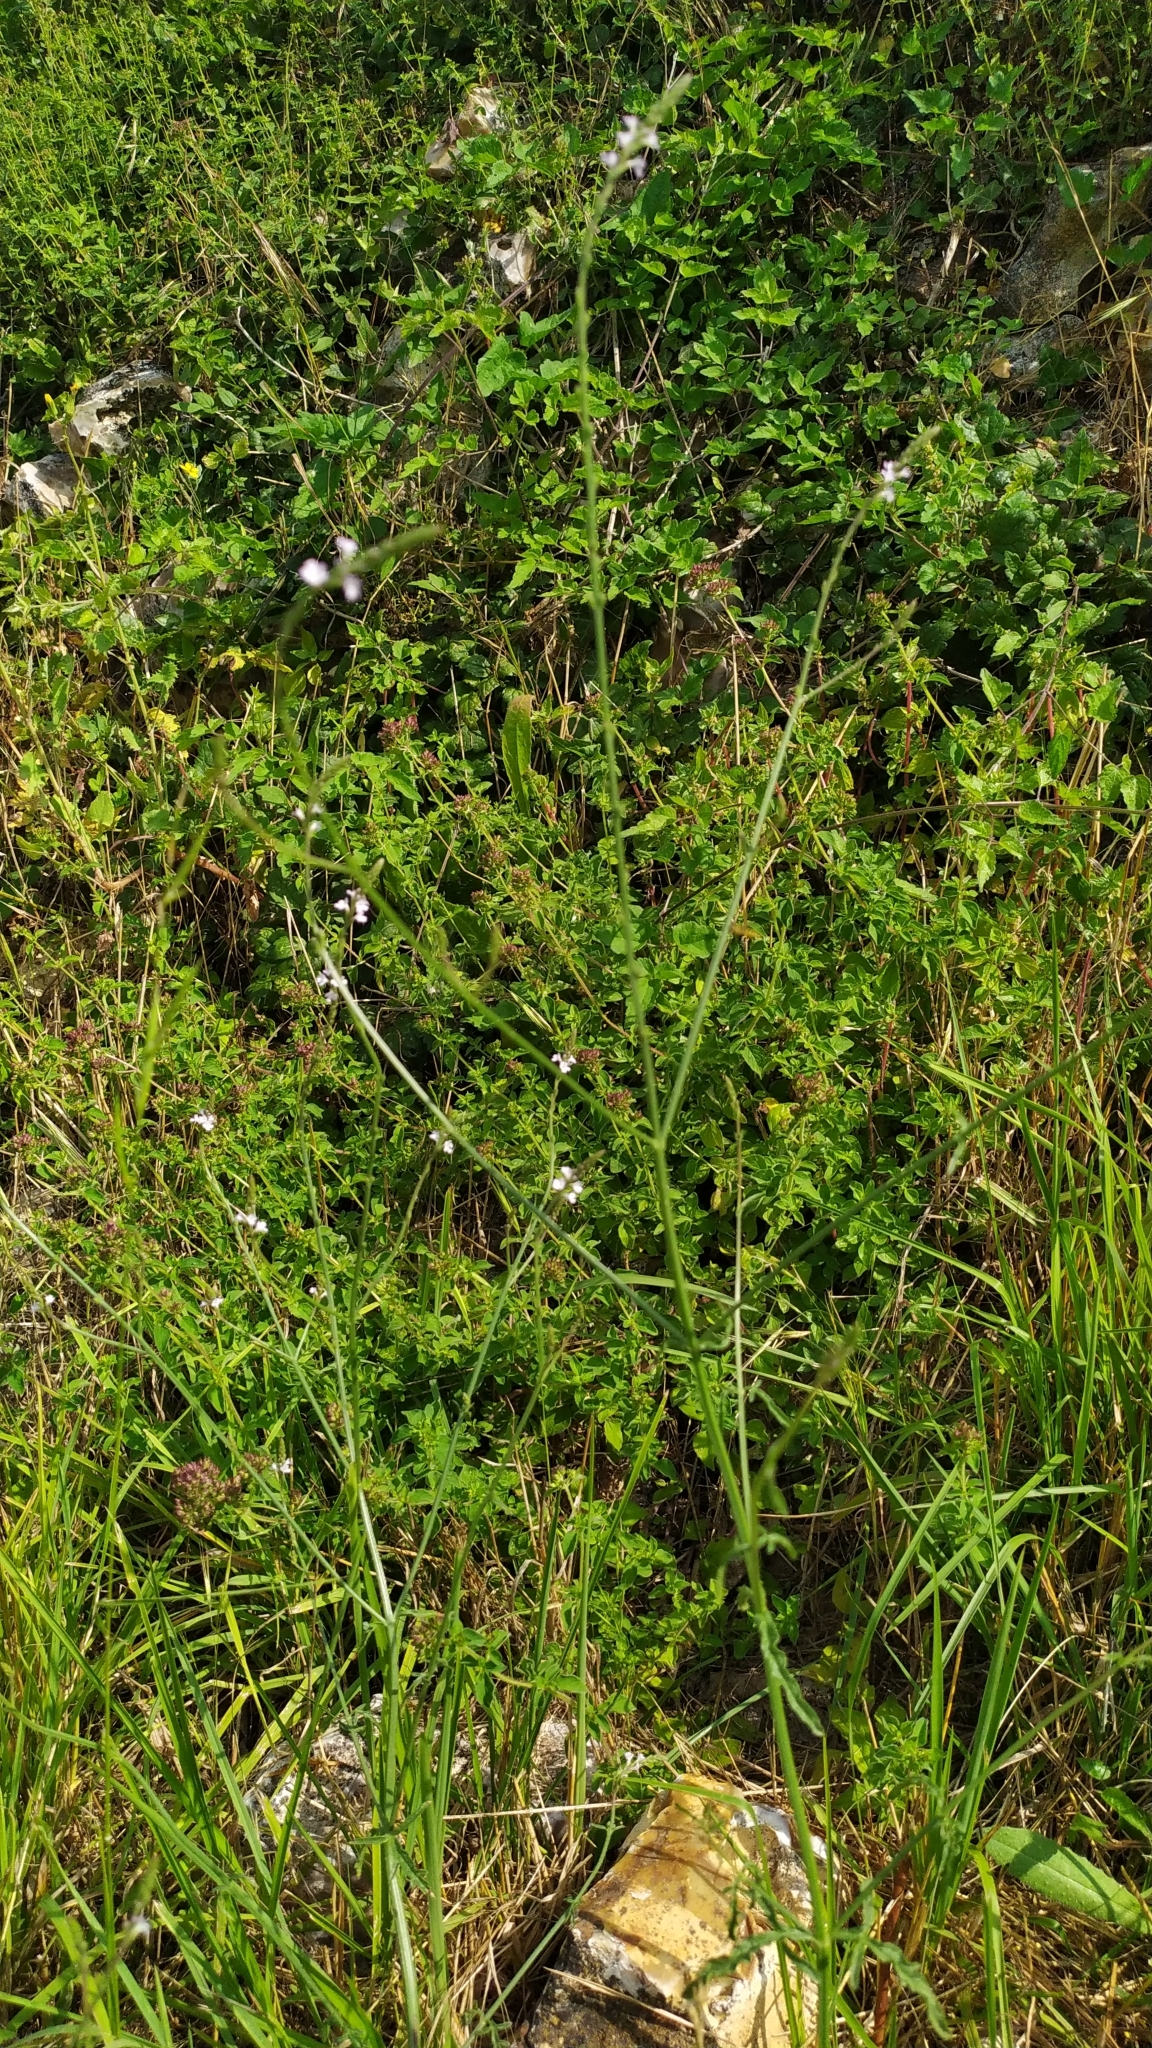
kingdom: Plantae
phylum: Tracheophyta
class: Magnoliopsida
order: Lamiales
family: Lamiaceae
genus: Origanum
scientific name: Origanum vulgare
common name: Wild marjoram
